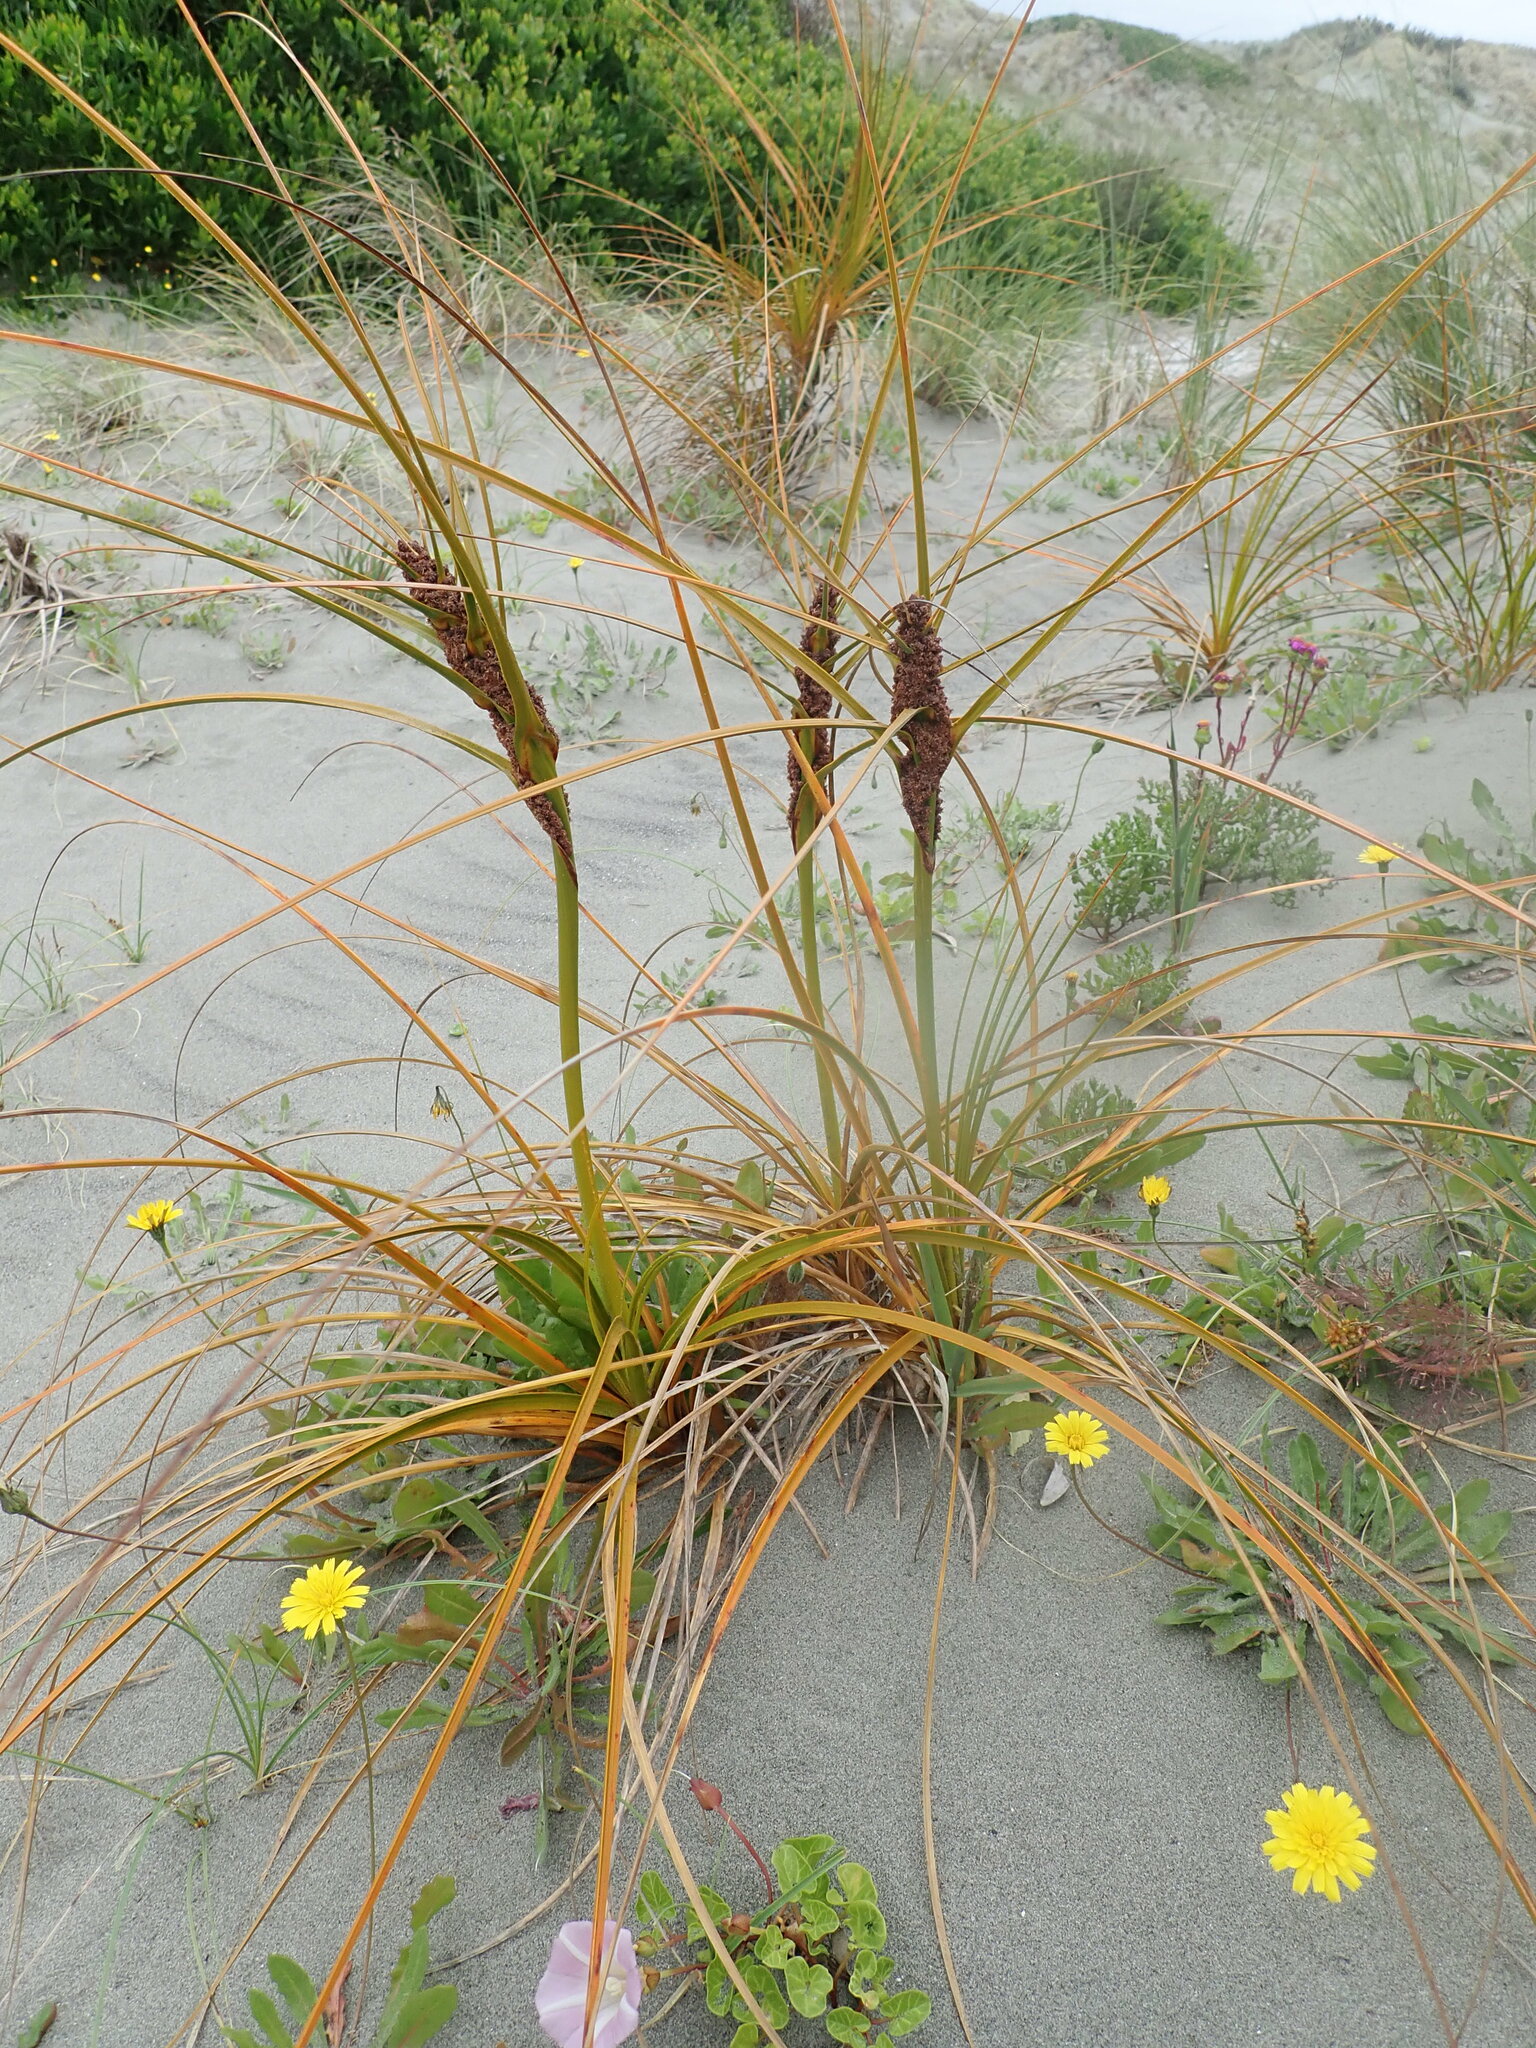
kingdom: Plantae
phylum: Tracheophyta
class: Liliopsida
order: Poales
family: Cyperaceae
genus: Ficinia
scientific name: Ficinia spiralis
